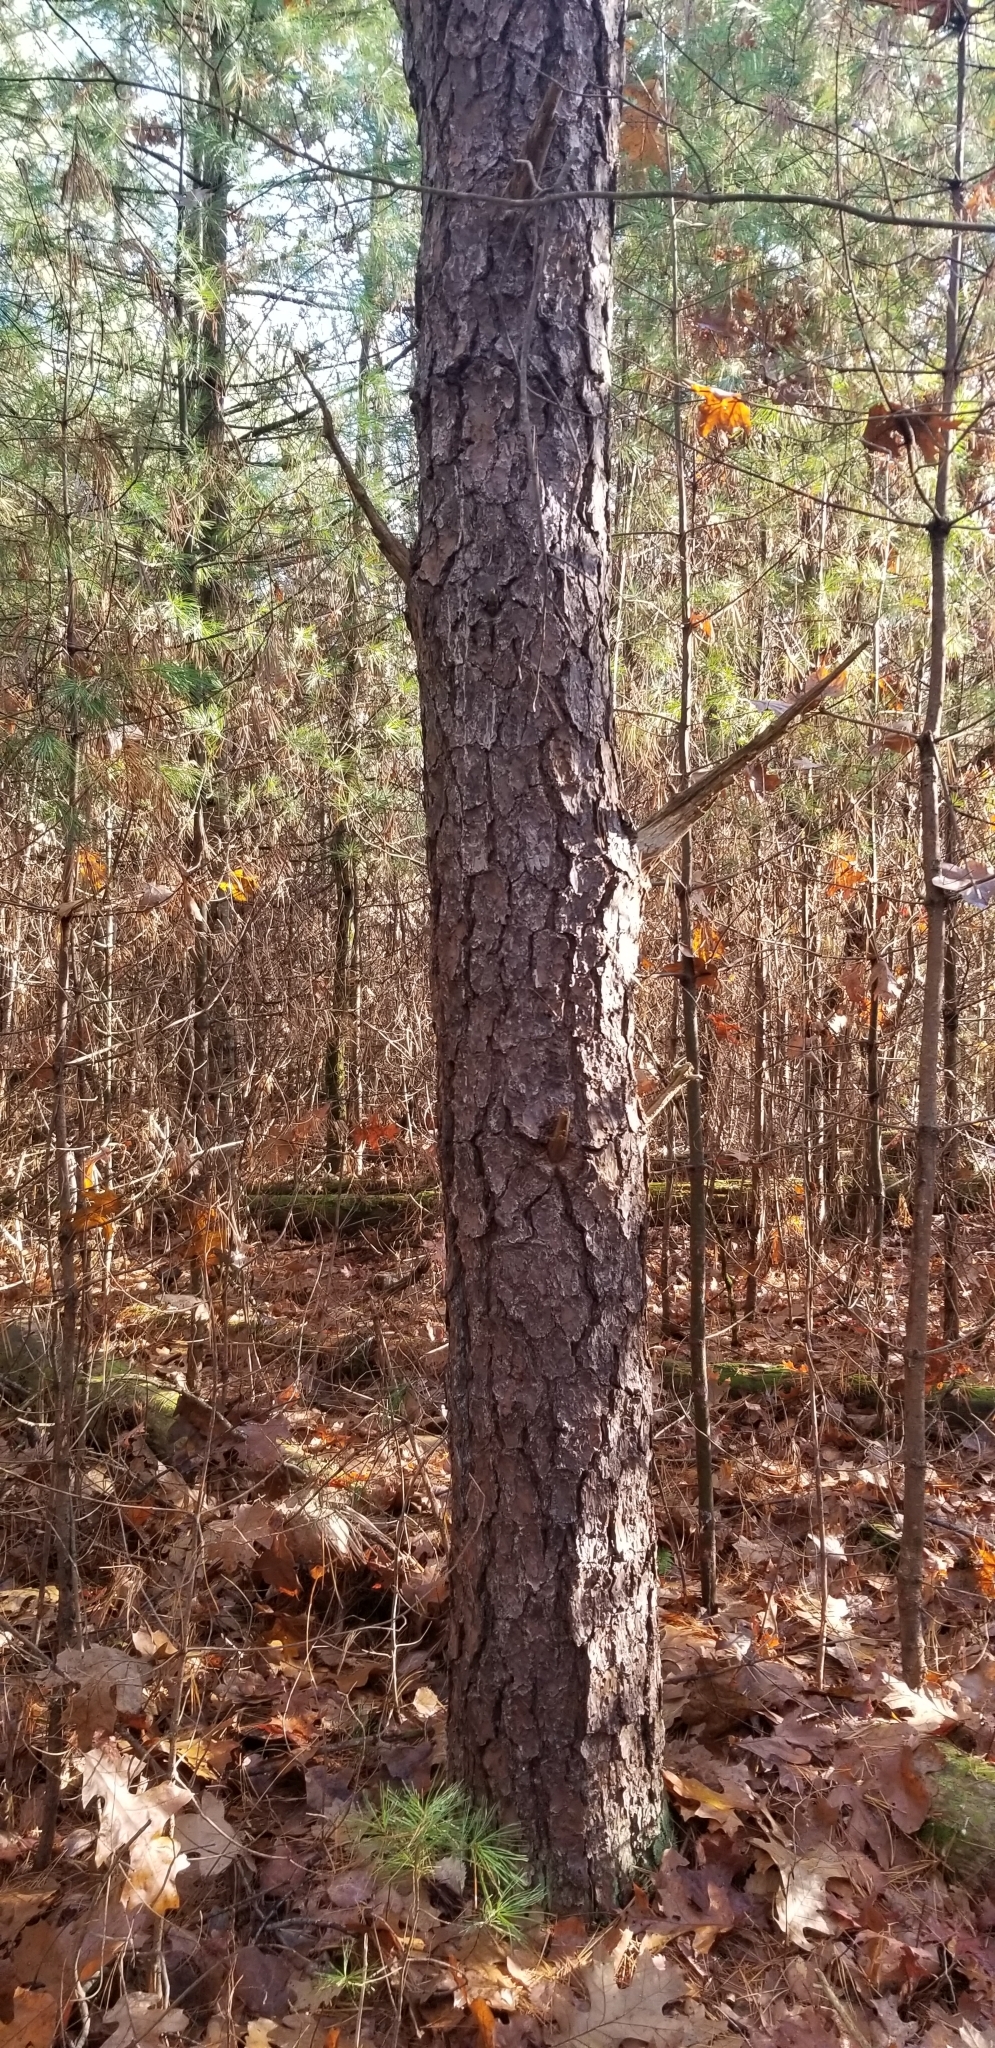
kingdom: Plantae
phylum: Tracheophyta
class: Pinopsida
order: Pinales
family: Pinaceae
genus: Pinus
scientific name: Pinus rigida
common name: Pitch pine
